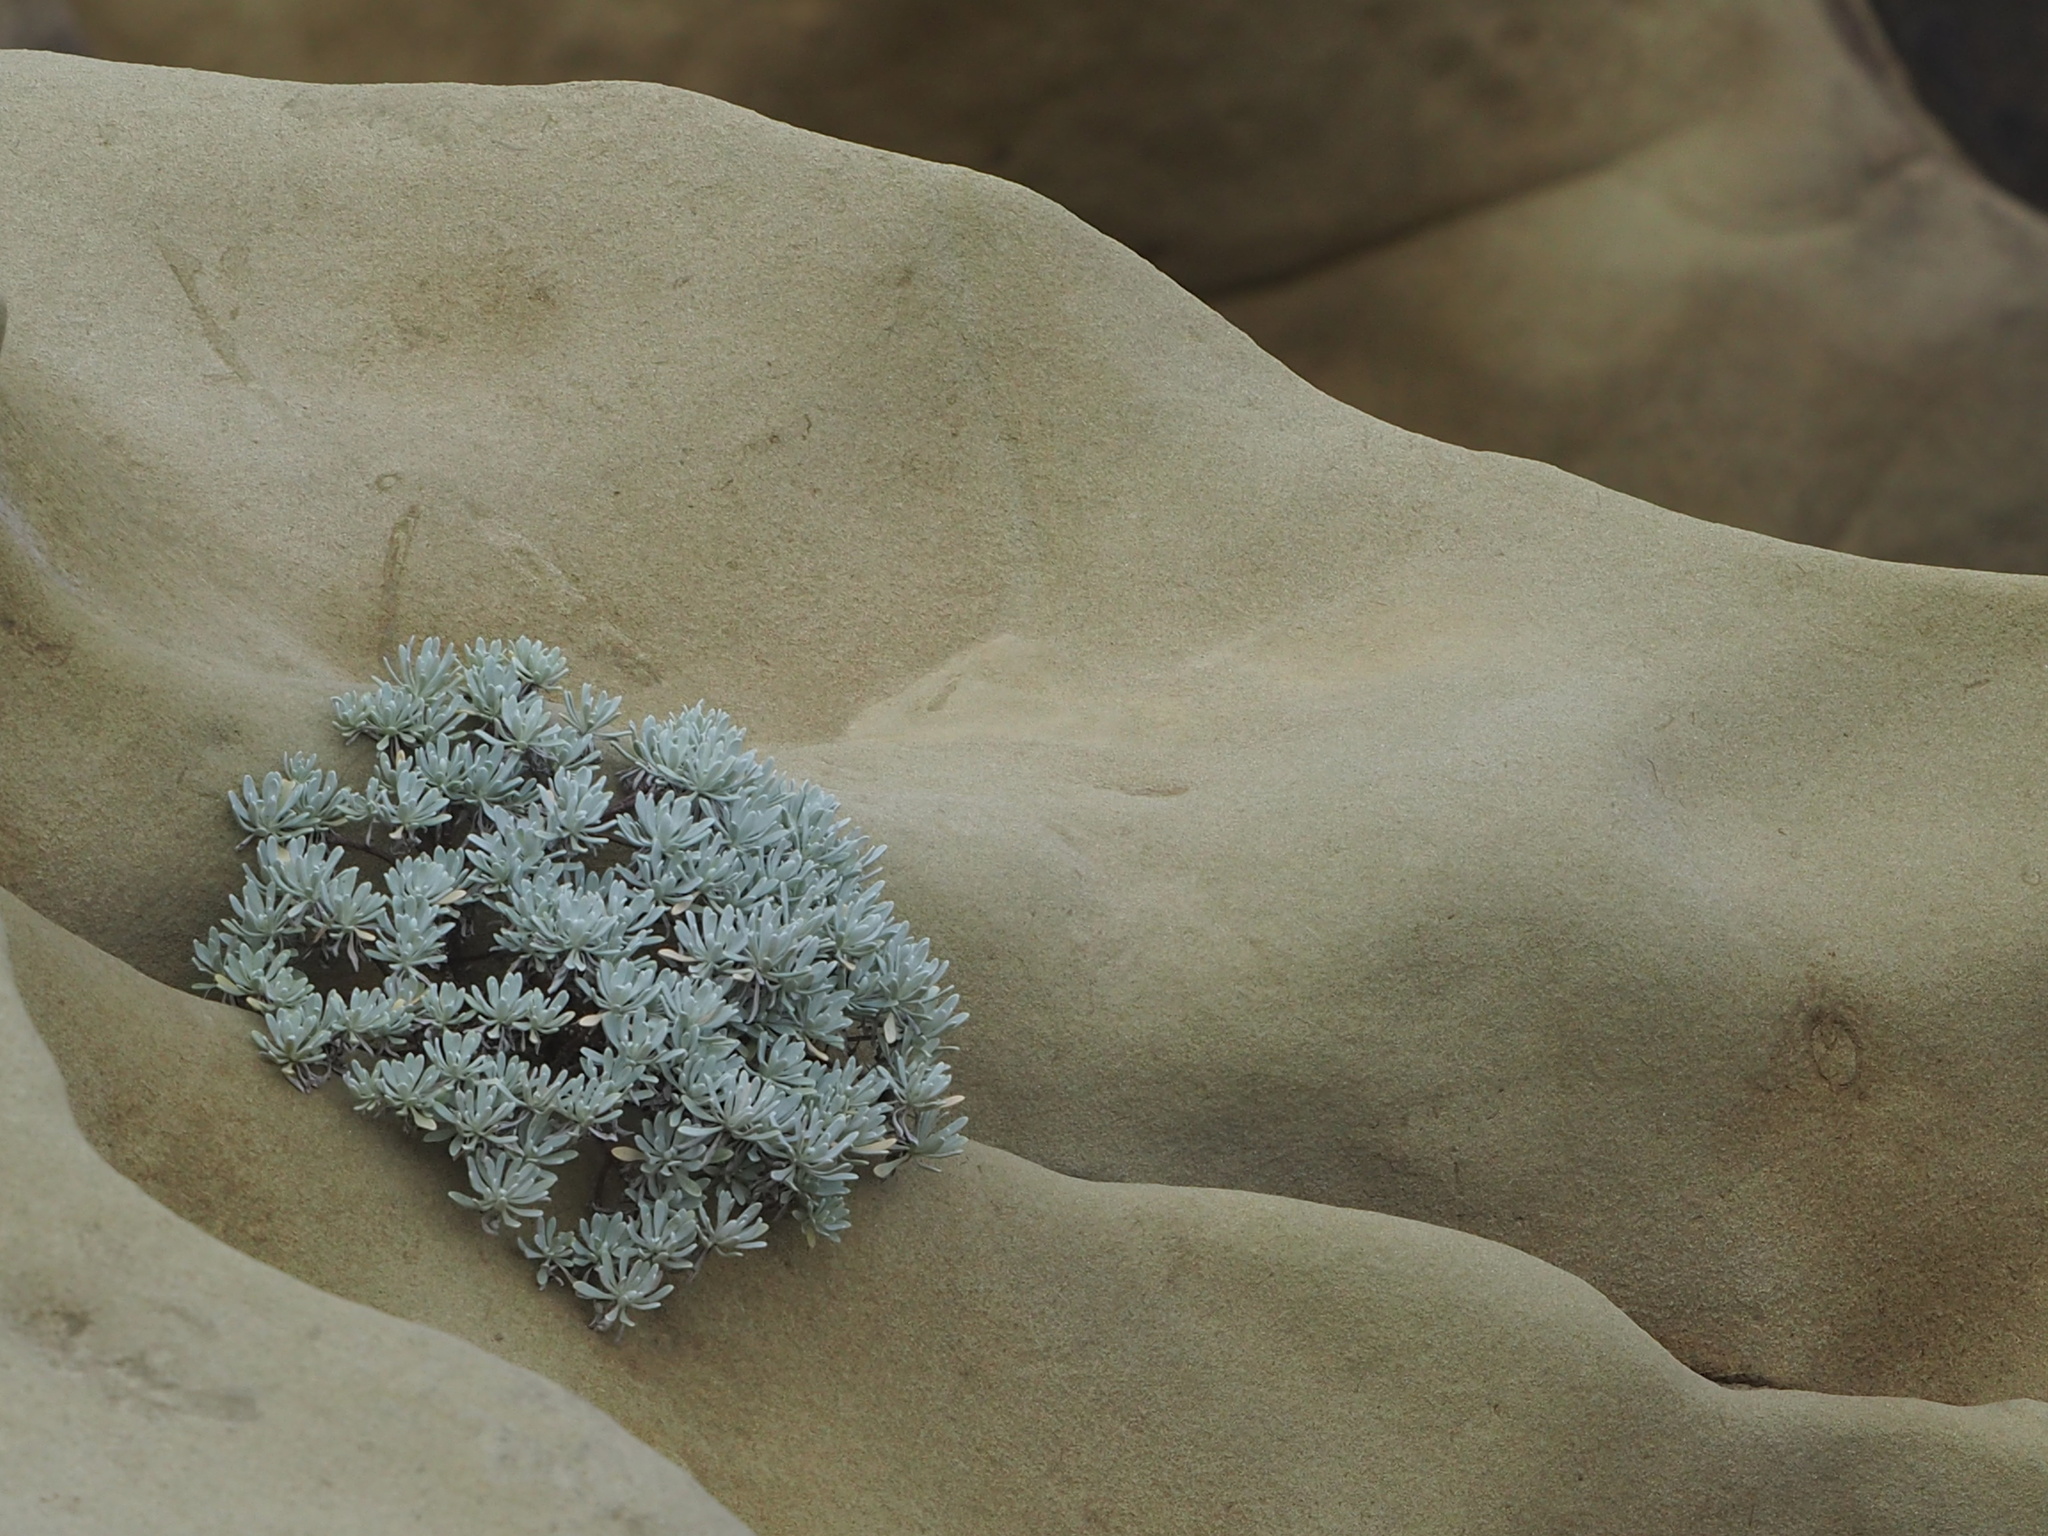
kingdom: Plantae
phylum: Tracheophyta
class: Magnoliopsida
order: Asterales
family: Asteraceae
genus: Crossostephium
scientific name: Crossostephium chinense
